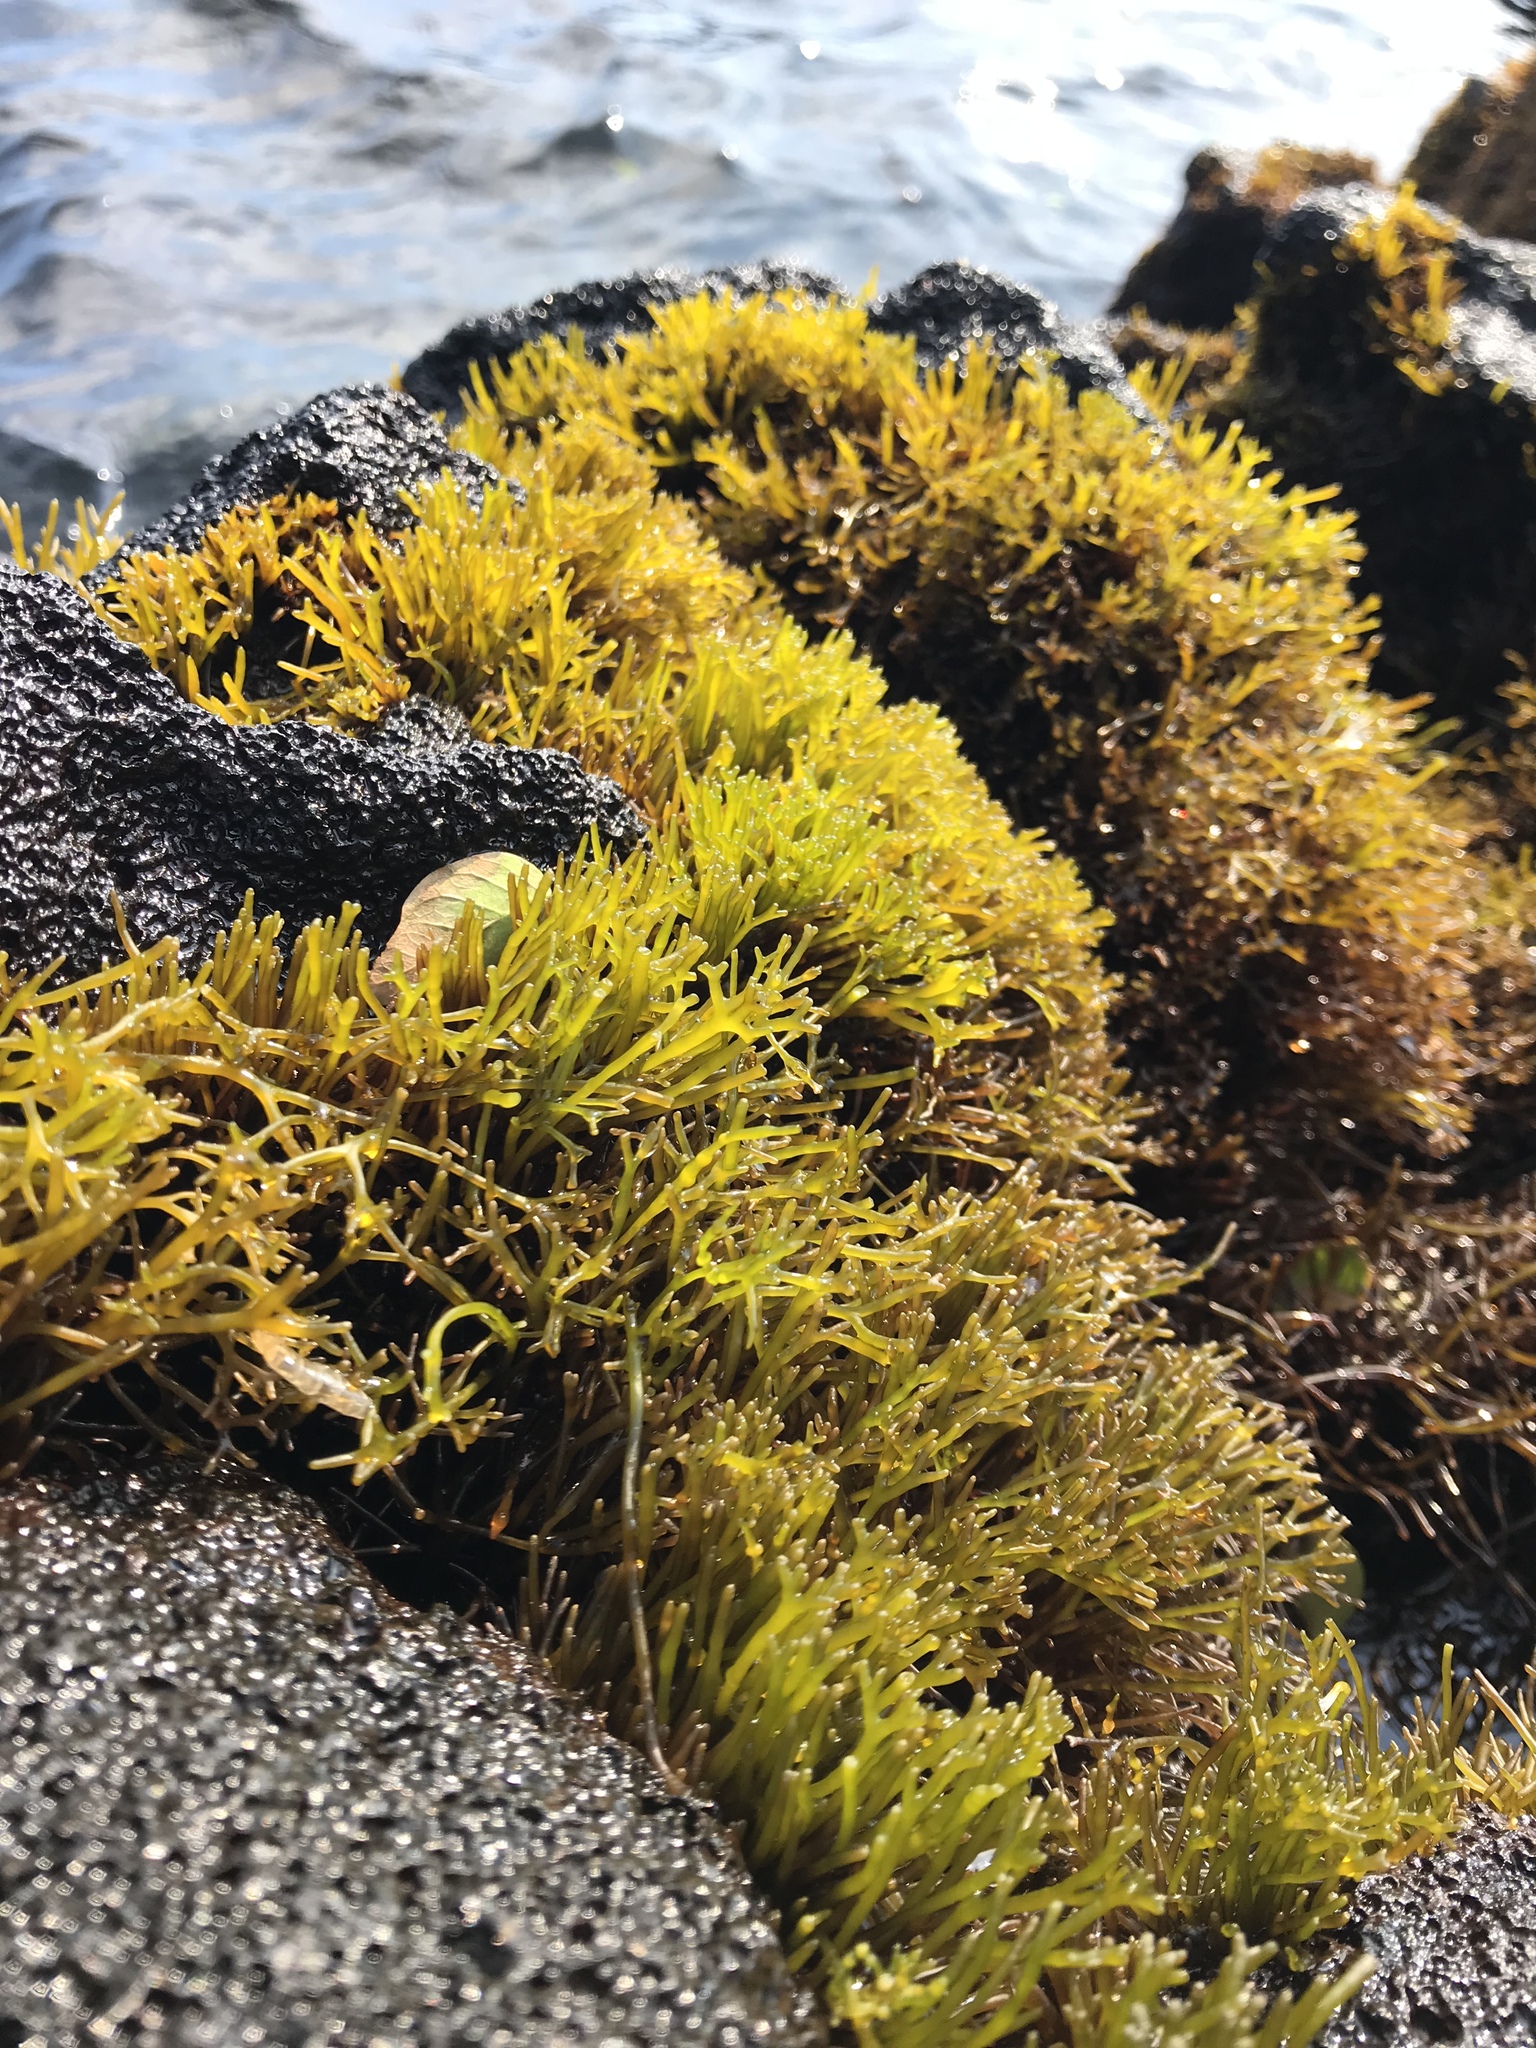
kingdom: Plantae
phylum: Rhodophyta
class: Florideophyceae
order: Gigartinales
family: Phyllophoraceae
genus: Gymnogongrus
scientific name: Gymnogongrus durvillei
